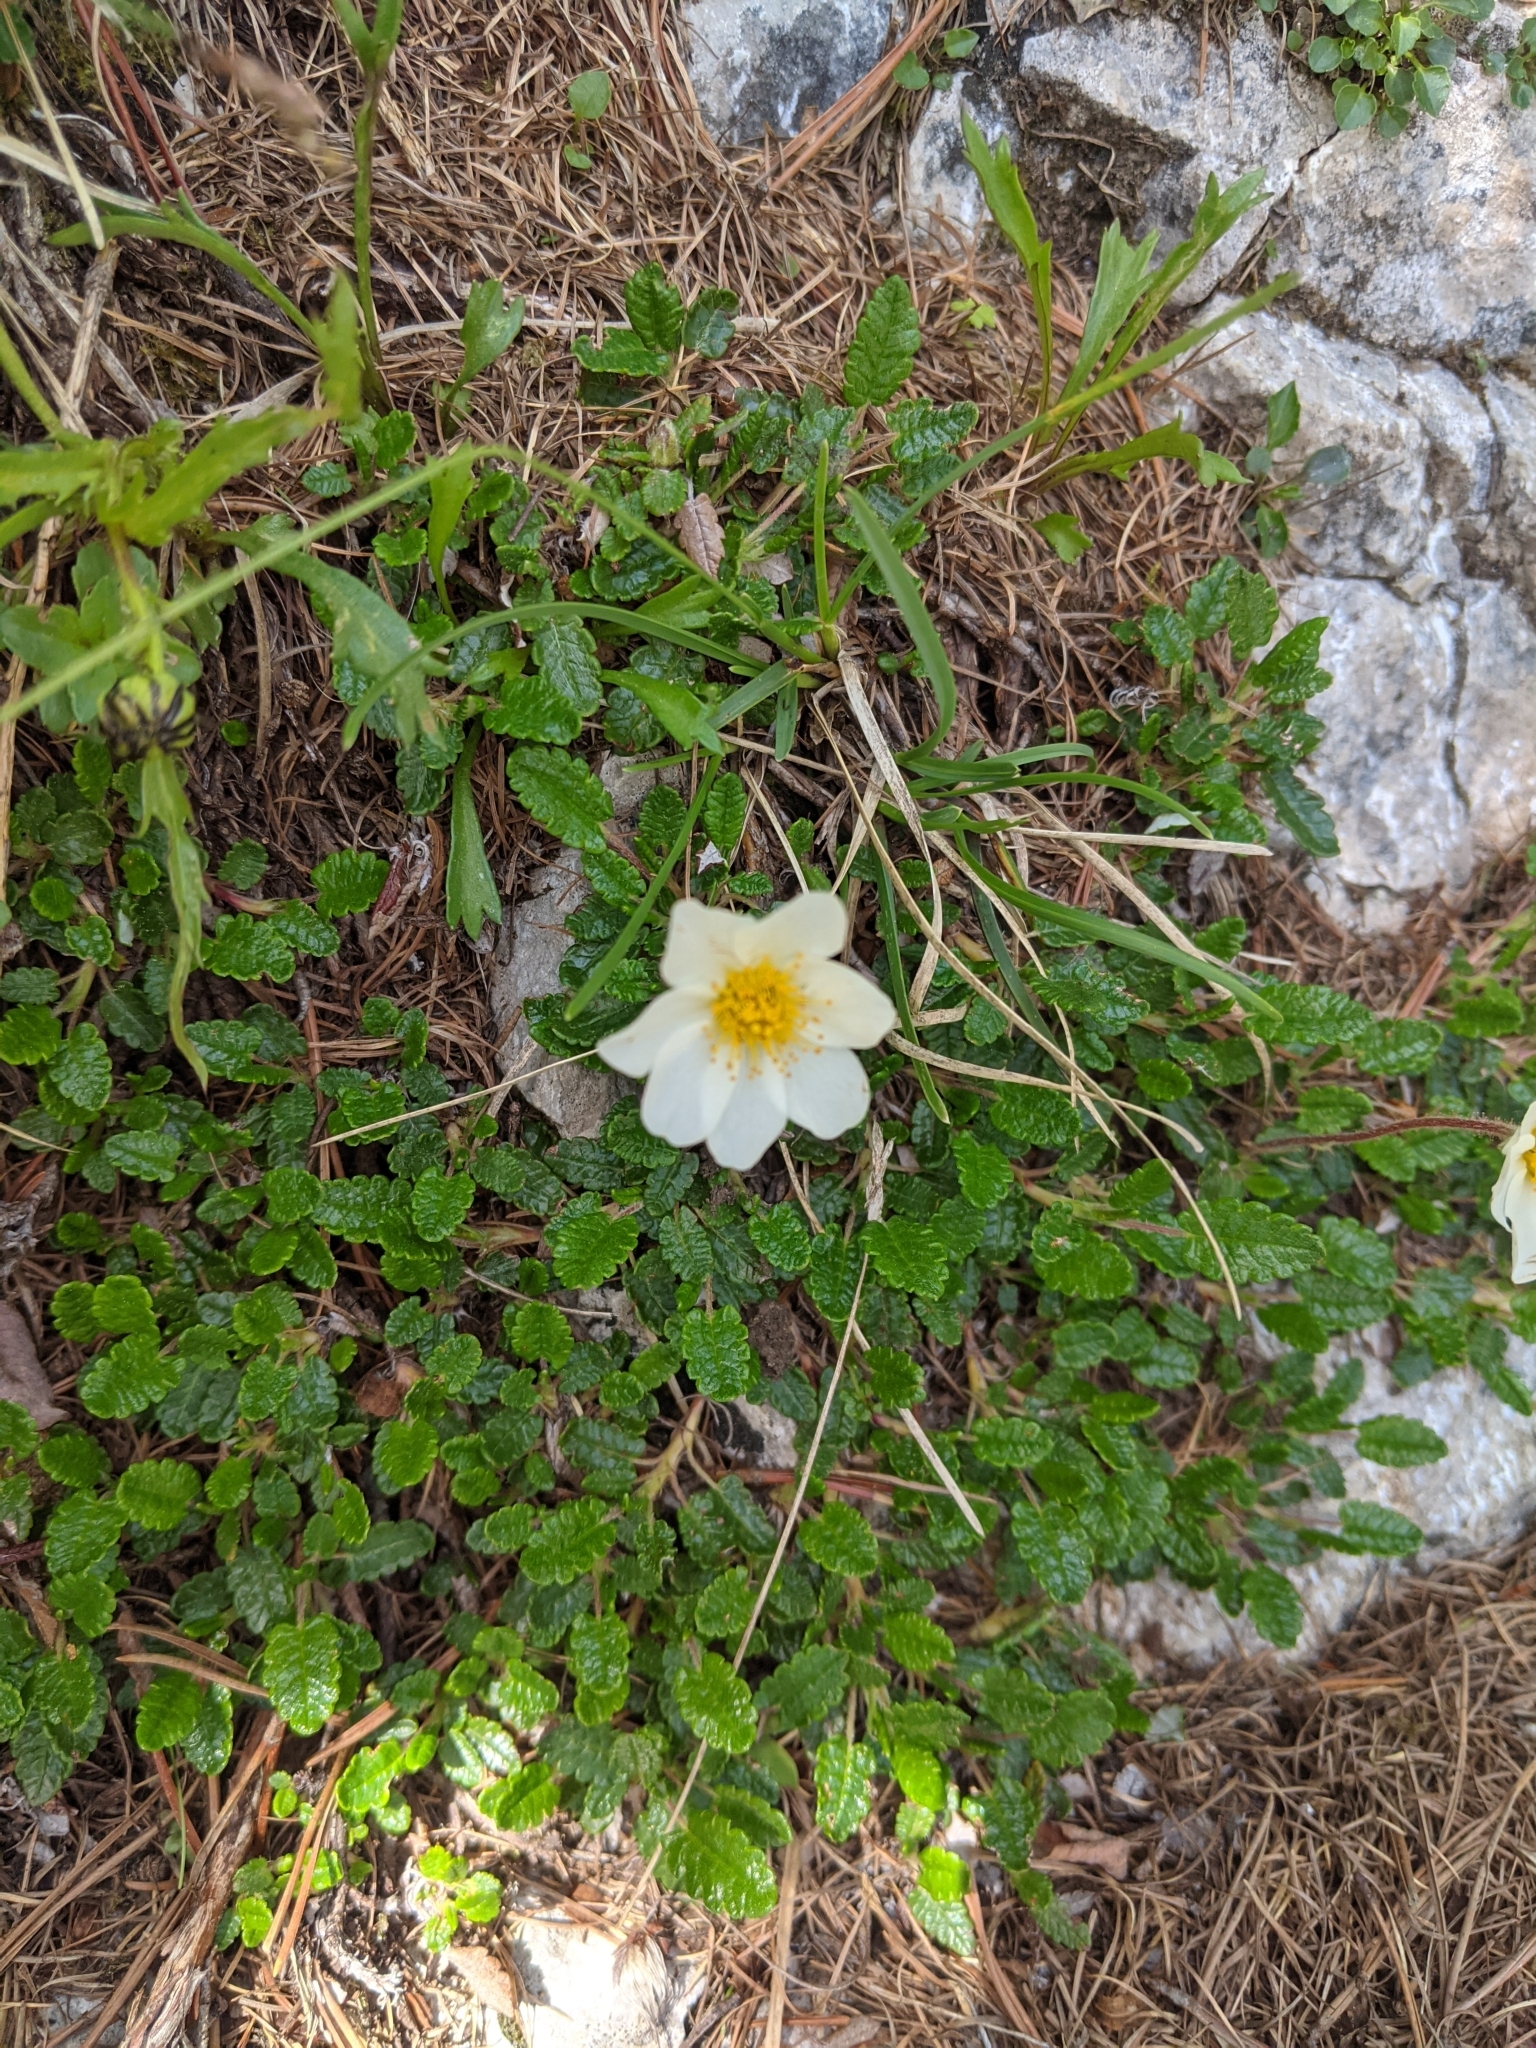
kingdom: Plantae
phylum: Tracheophyta
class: Magnoliopsida
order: Rosales
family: Rosaceae
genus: Dryas
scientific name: Dryas octopetala
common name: Eight-petal mountain-avens
